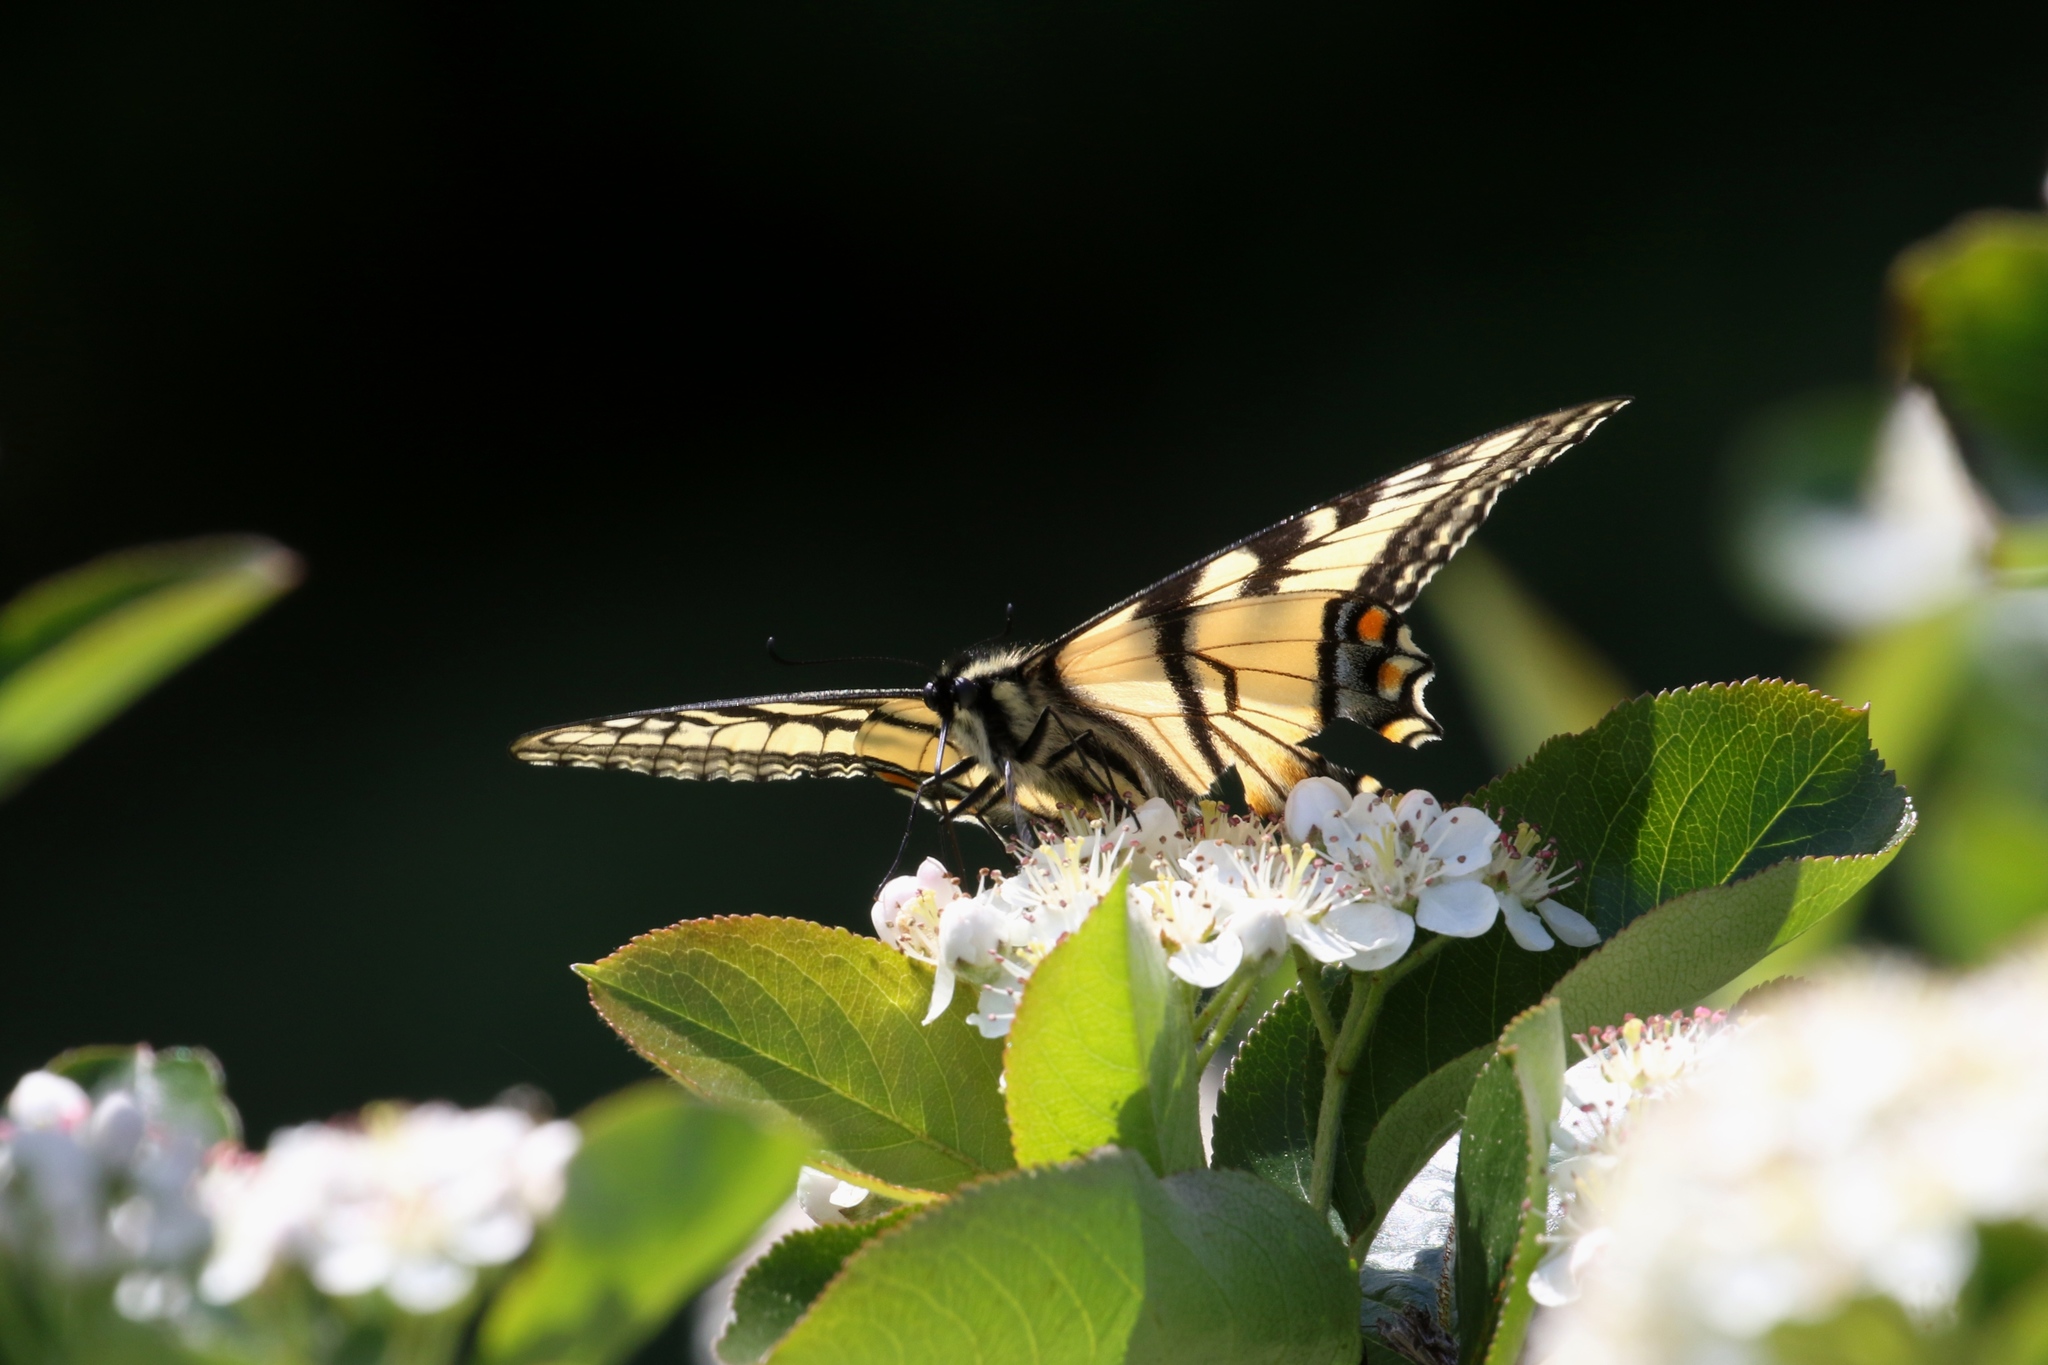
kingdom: Animalia
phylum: Arthropoda
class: Insecta
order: Lepidoptera
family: Papilionidae
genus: Papilio
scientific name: Papilio canadensis
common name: Canadian tiger swallowtail
